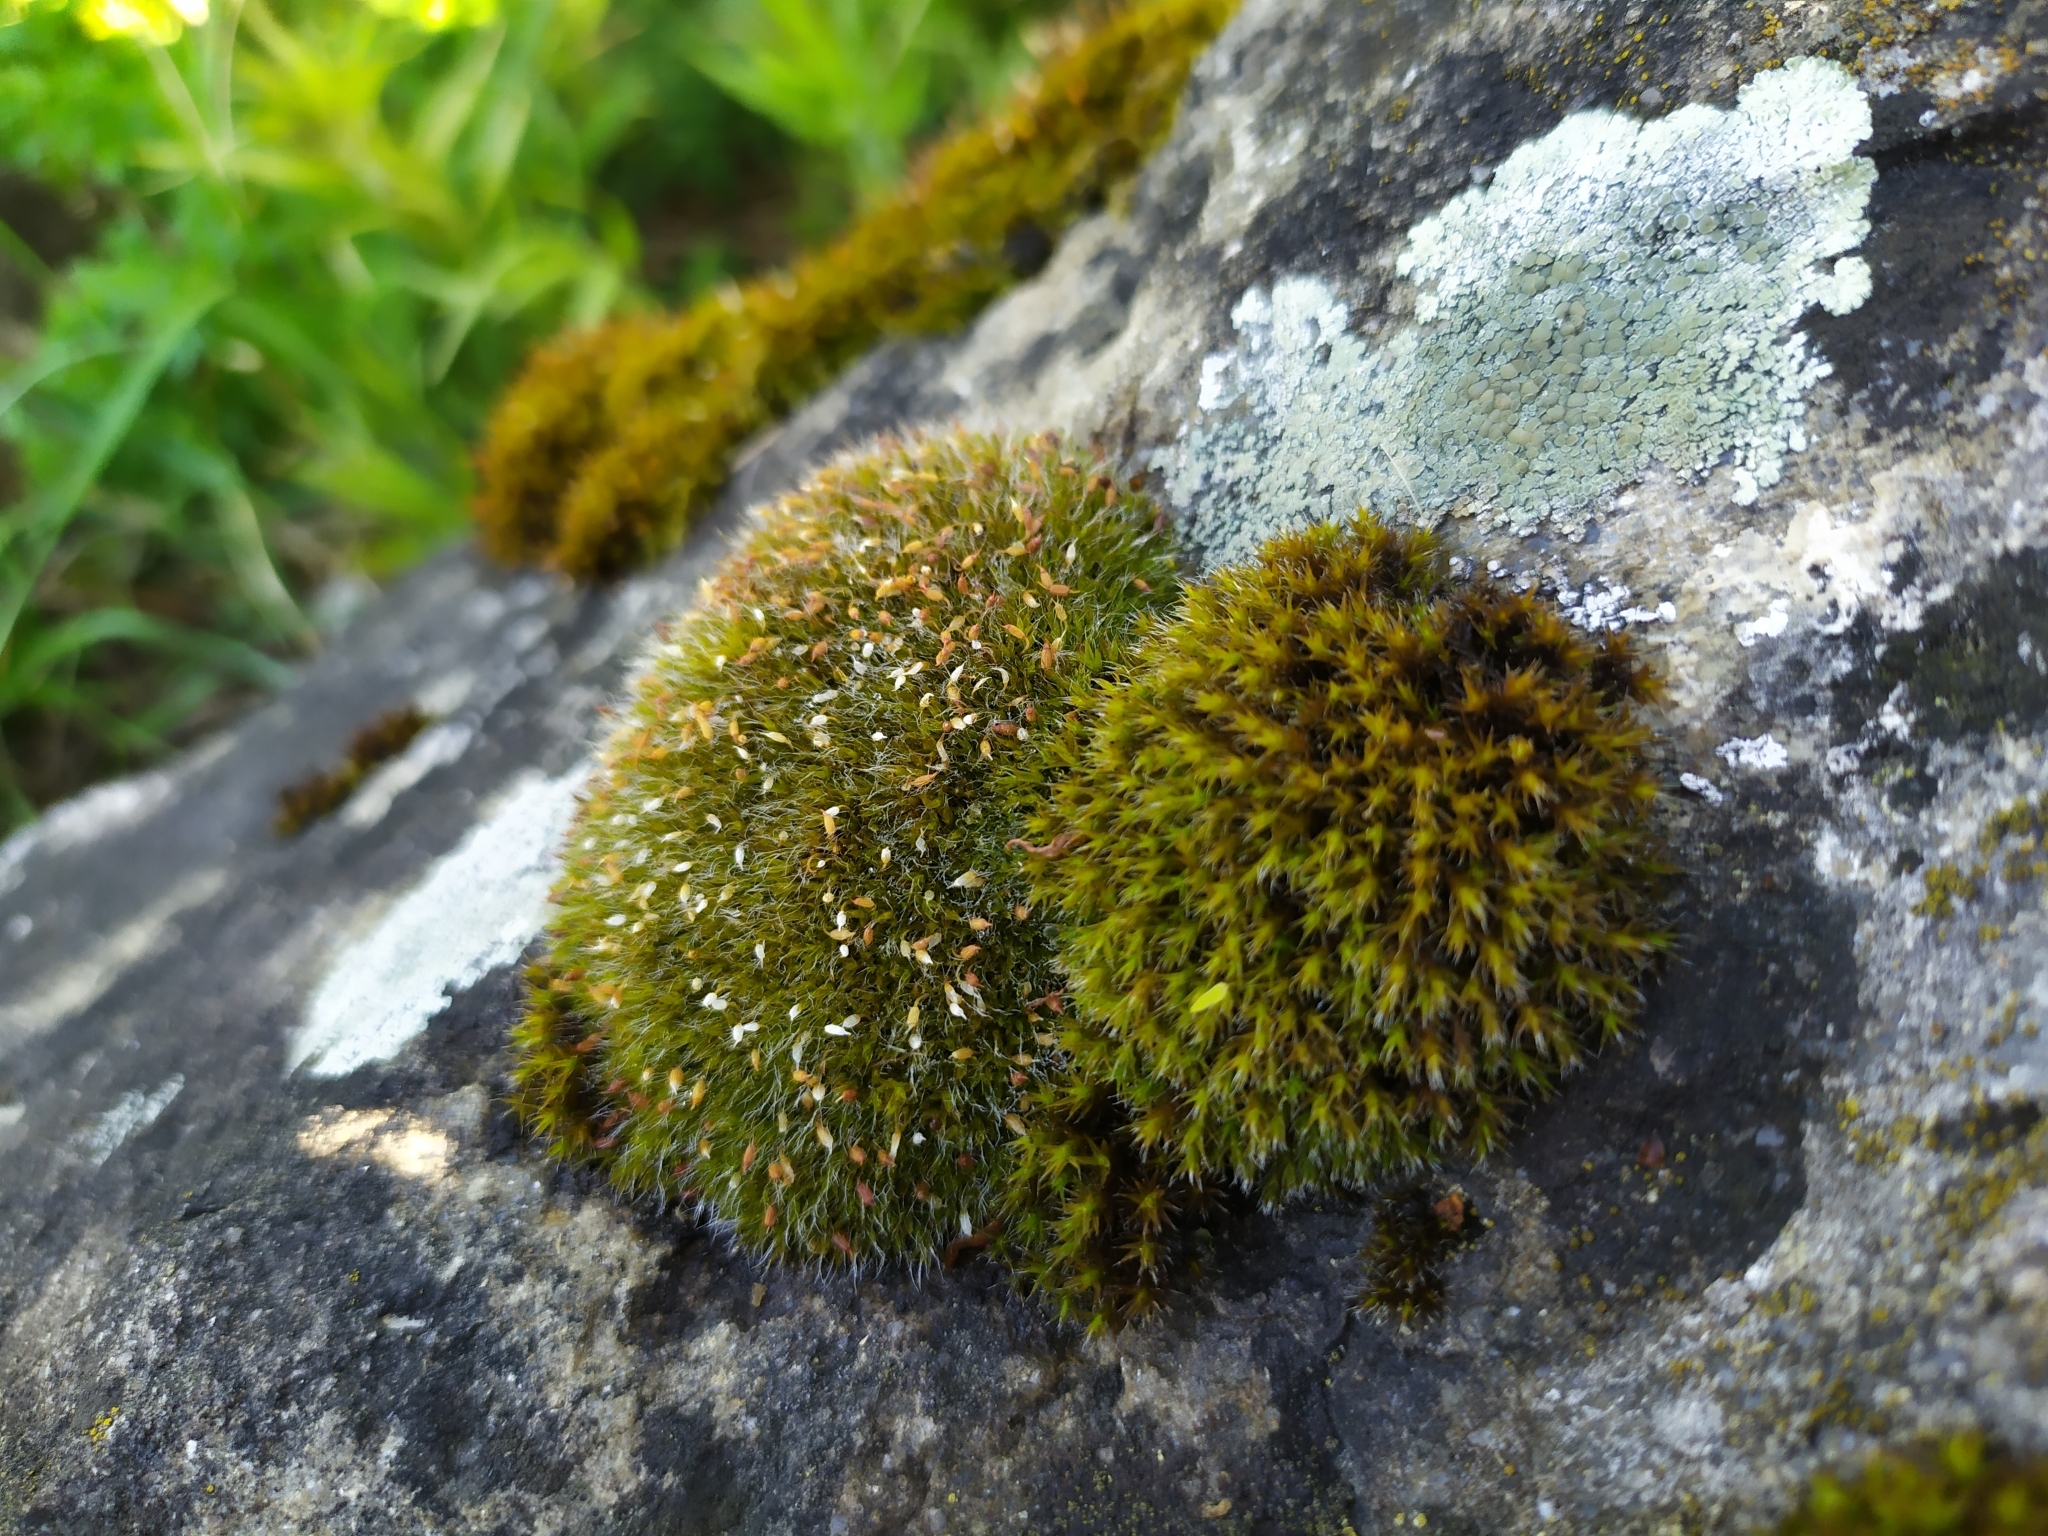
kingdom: Plantae
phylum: Bryophyta
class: Bryopsida
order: Grimmiales
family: Grimmiaceae
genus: Grimmia
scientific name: Grimmia pulvinata
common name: Grey-cushioned grimmia
